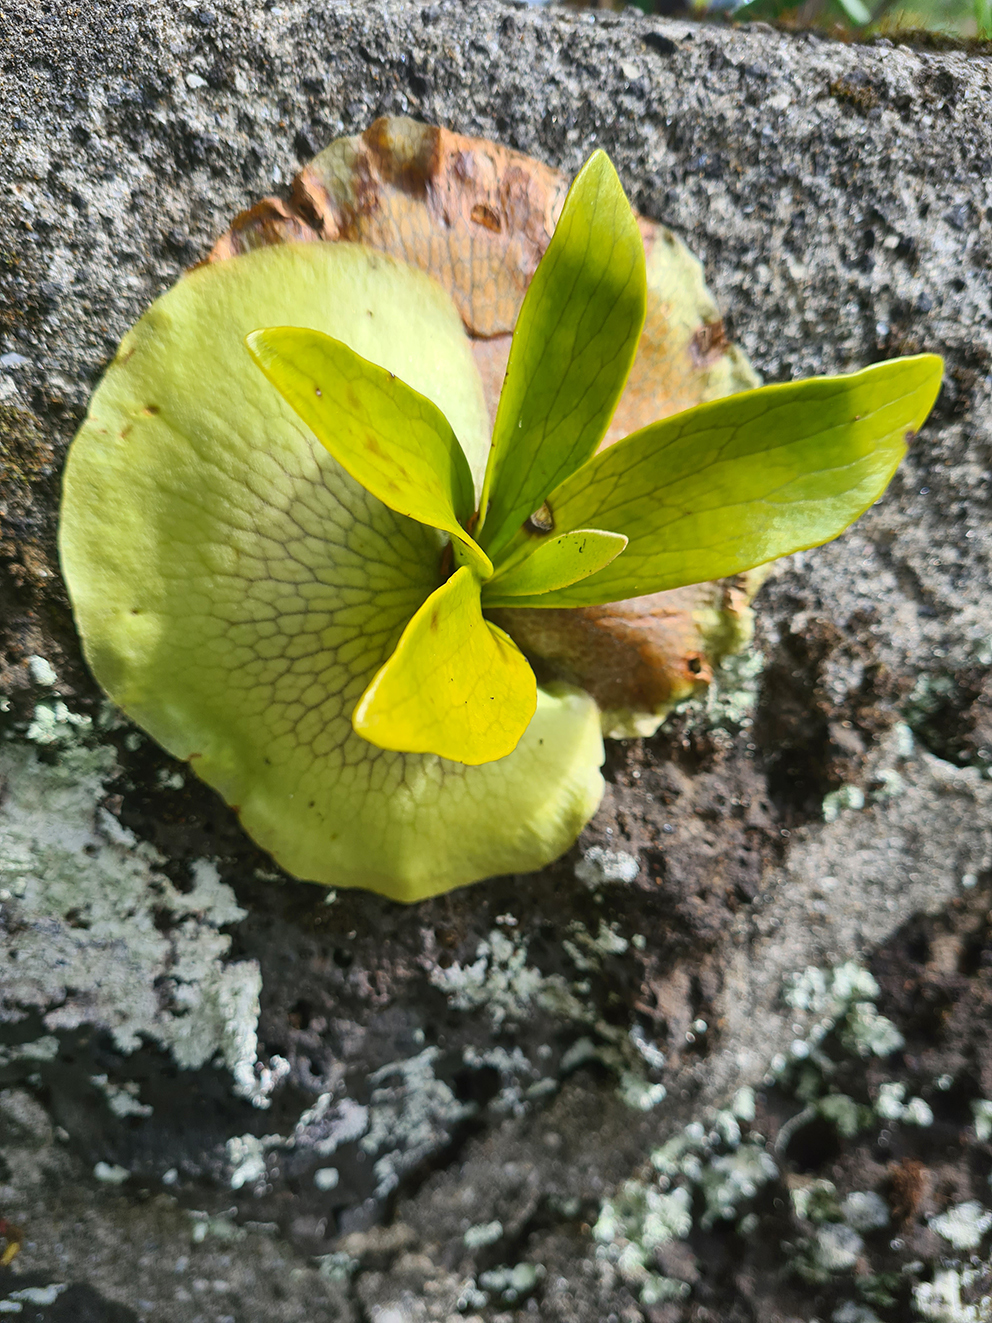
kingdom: Plantae
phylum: Tracheophyta
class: Polypodiopsida
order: Polypodiales
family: Polypodiaceae
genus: Platycerium
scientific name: Platycerium bifurcatum
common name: Elkhorn fern
